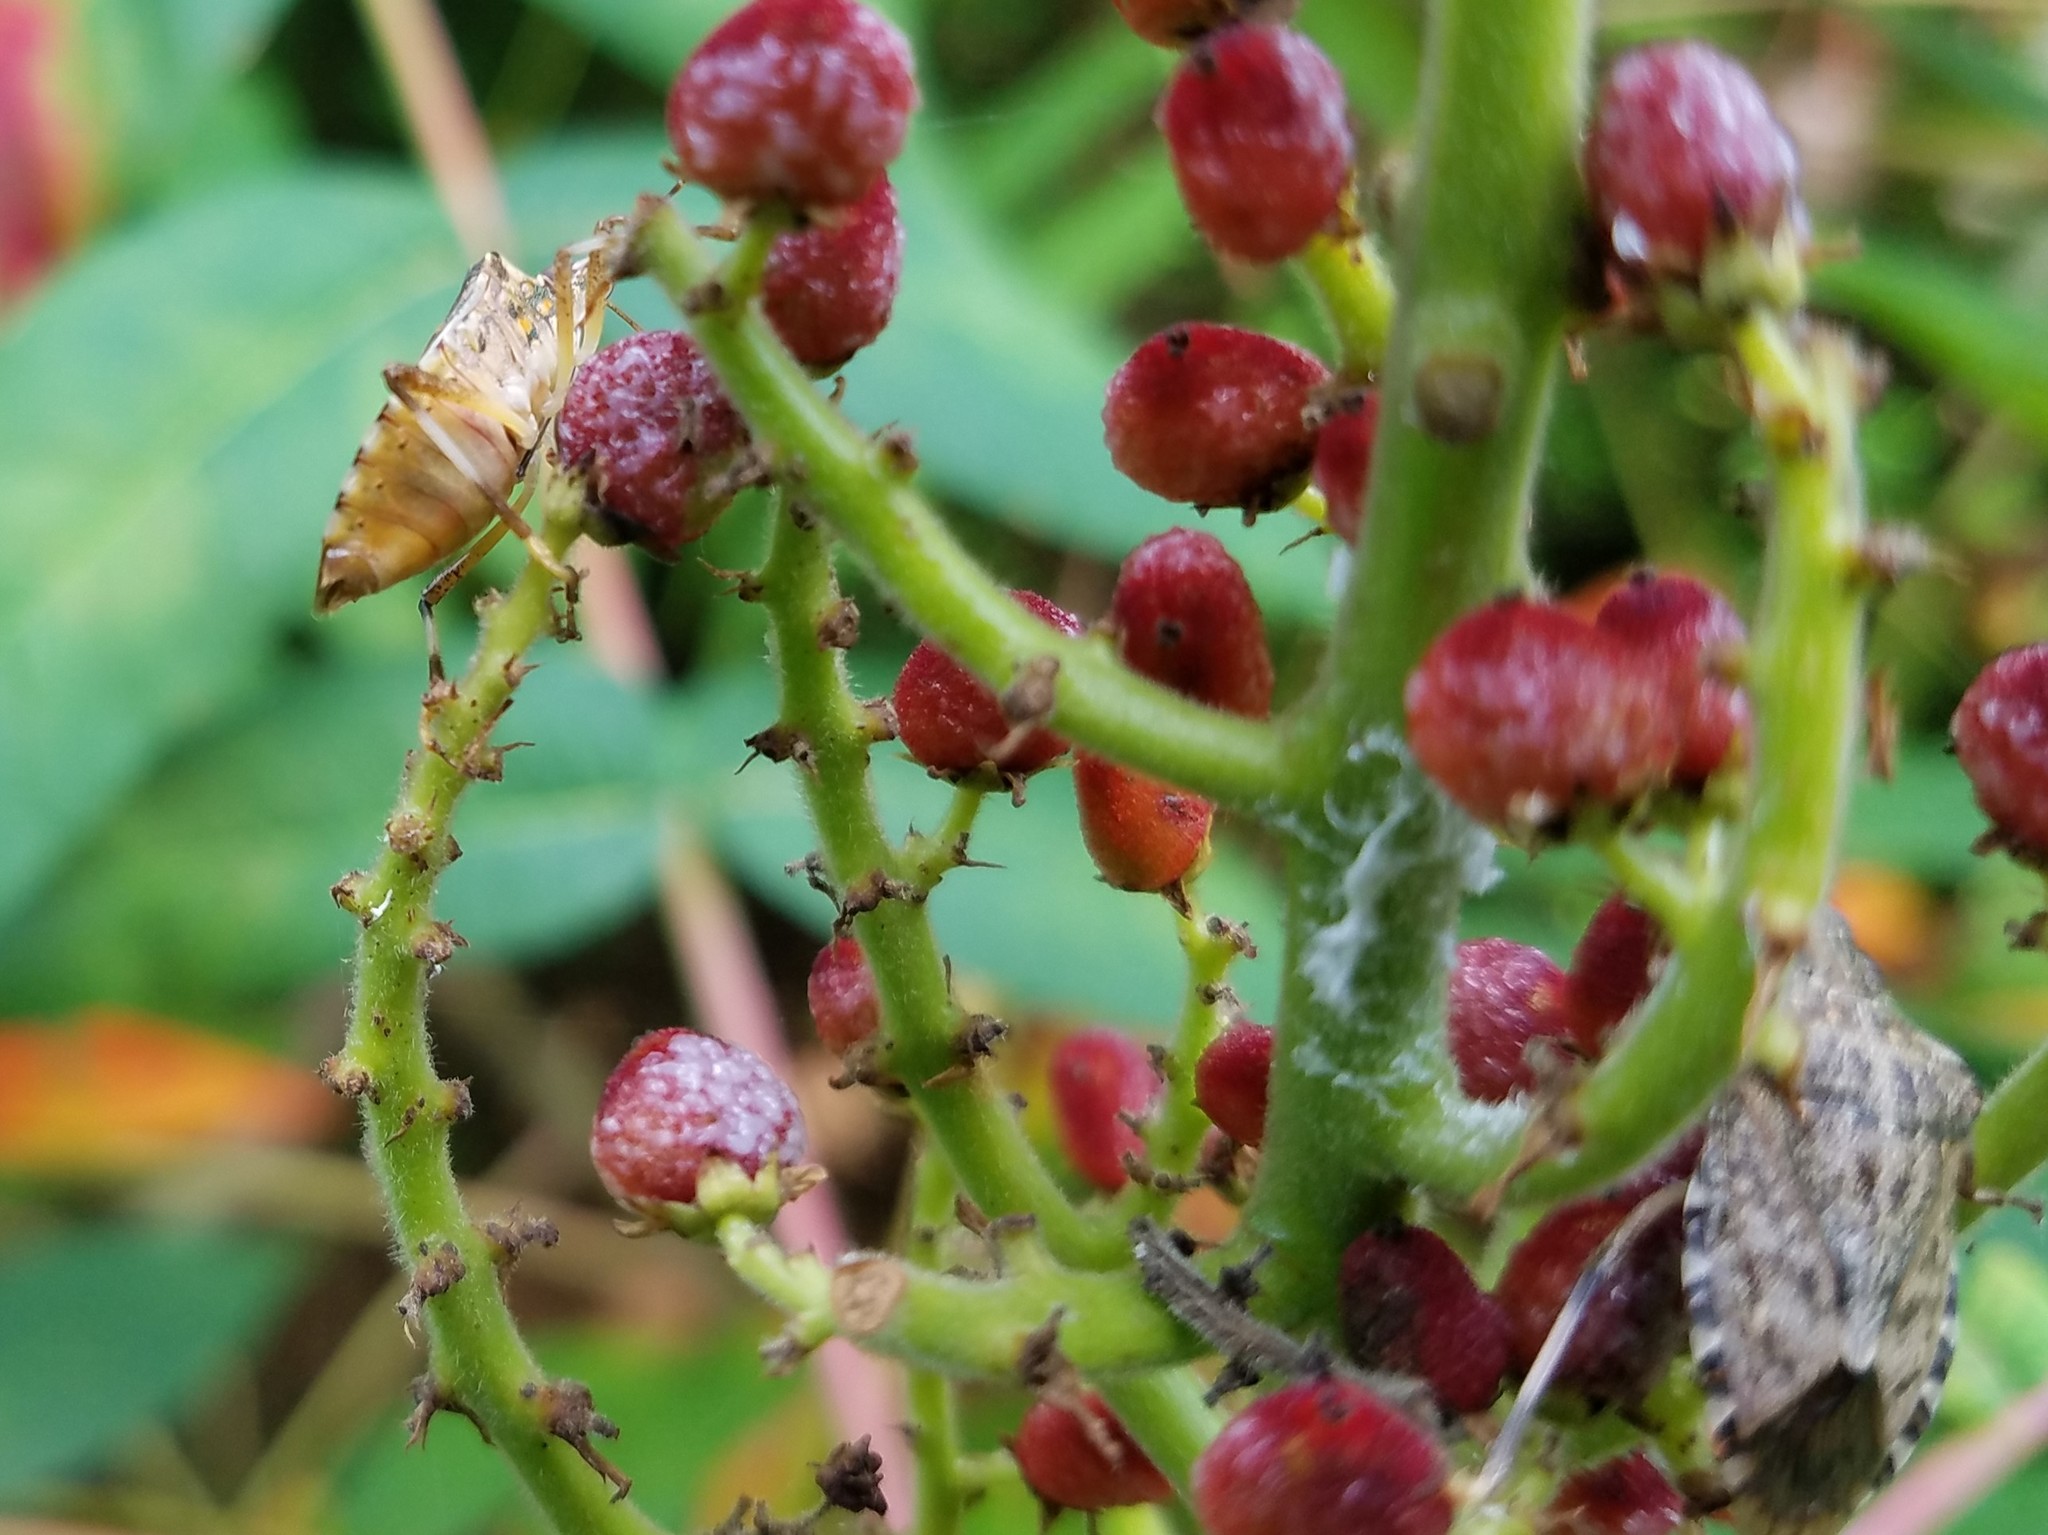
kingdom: Animalia
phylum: Arthropoda
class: Insecta
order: Hemiptera
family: Pentatomidae
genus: Halyomorpha
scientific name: Halyomorpha halys
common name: Brown marmorated stink bug
